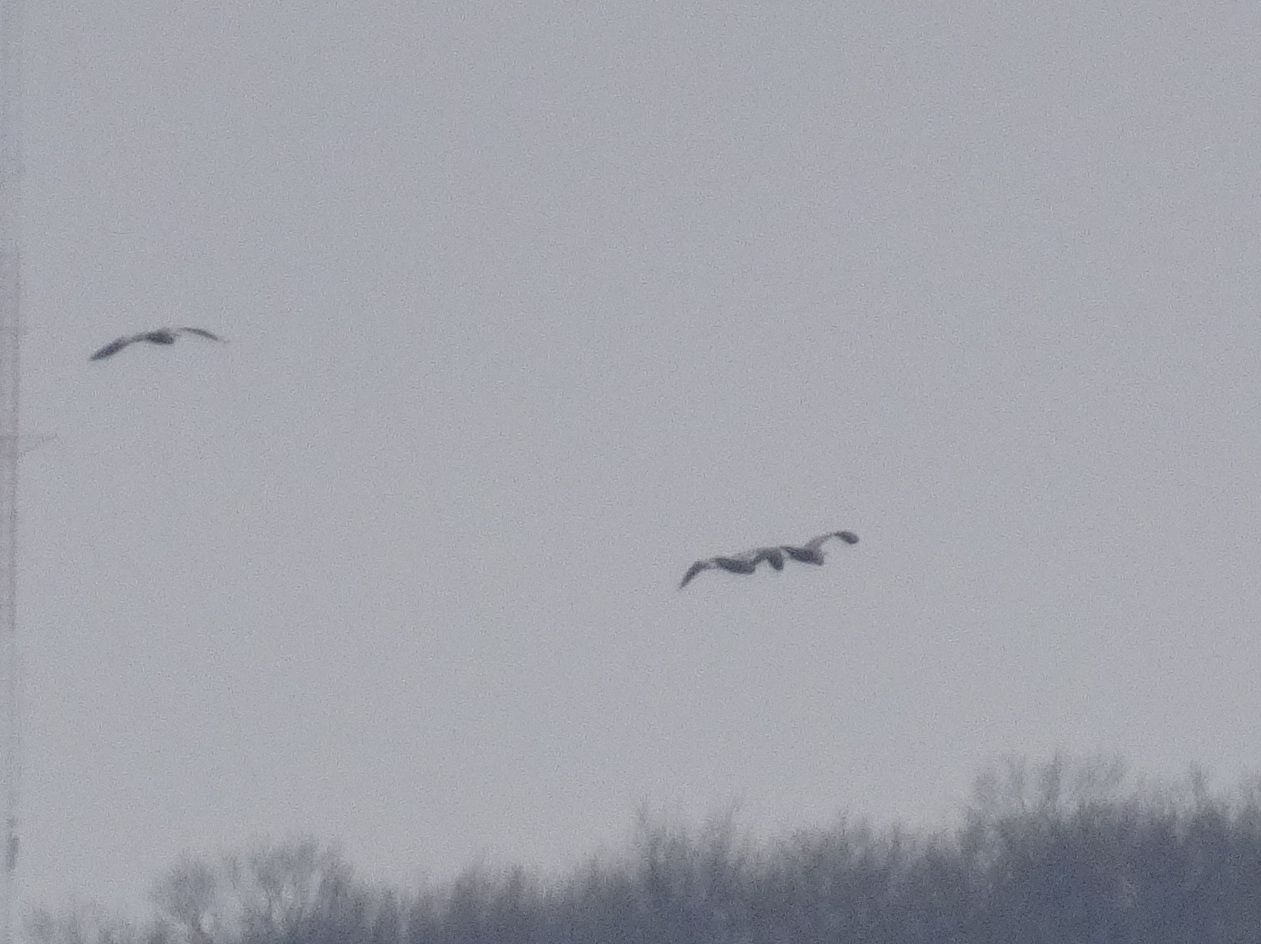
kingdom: Animalia
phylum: Chordata
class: Aves
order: Pelecaniformes
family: Ardeidae
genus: Ardea
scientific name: Ardea herodias
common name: Great blue heron
